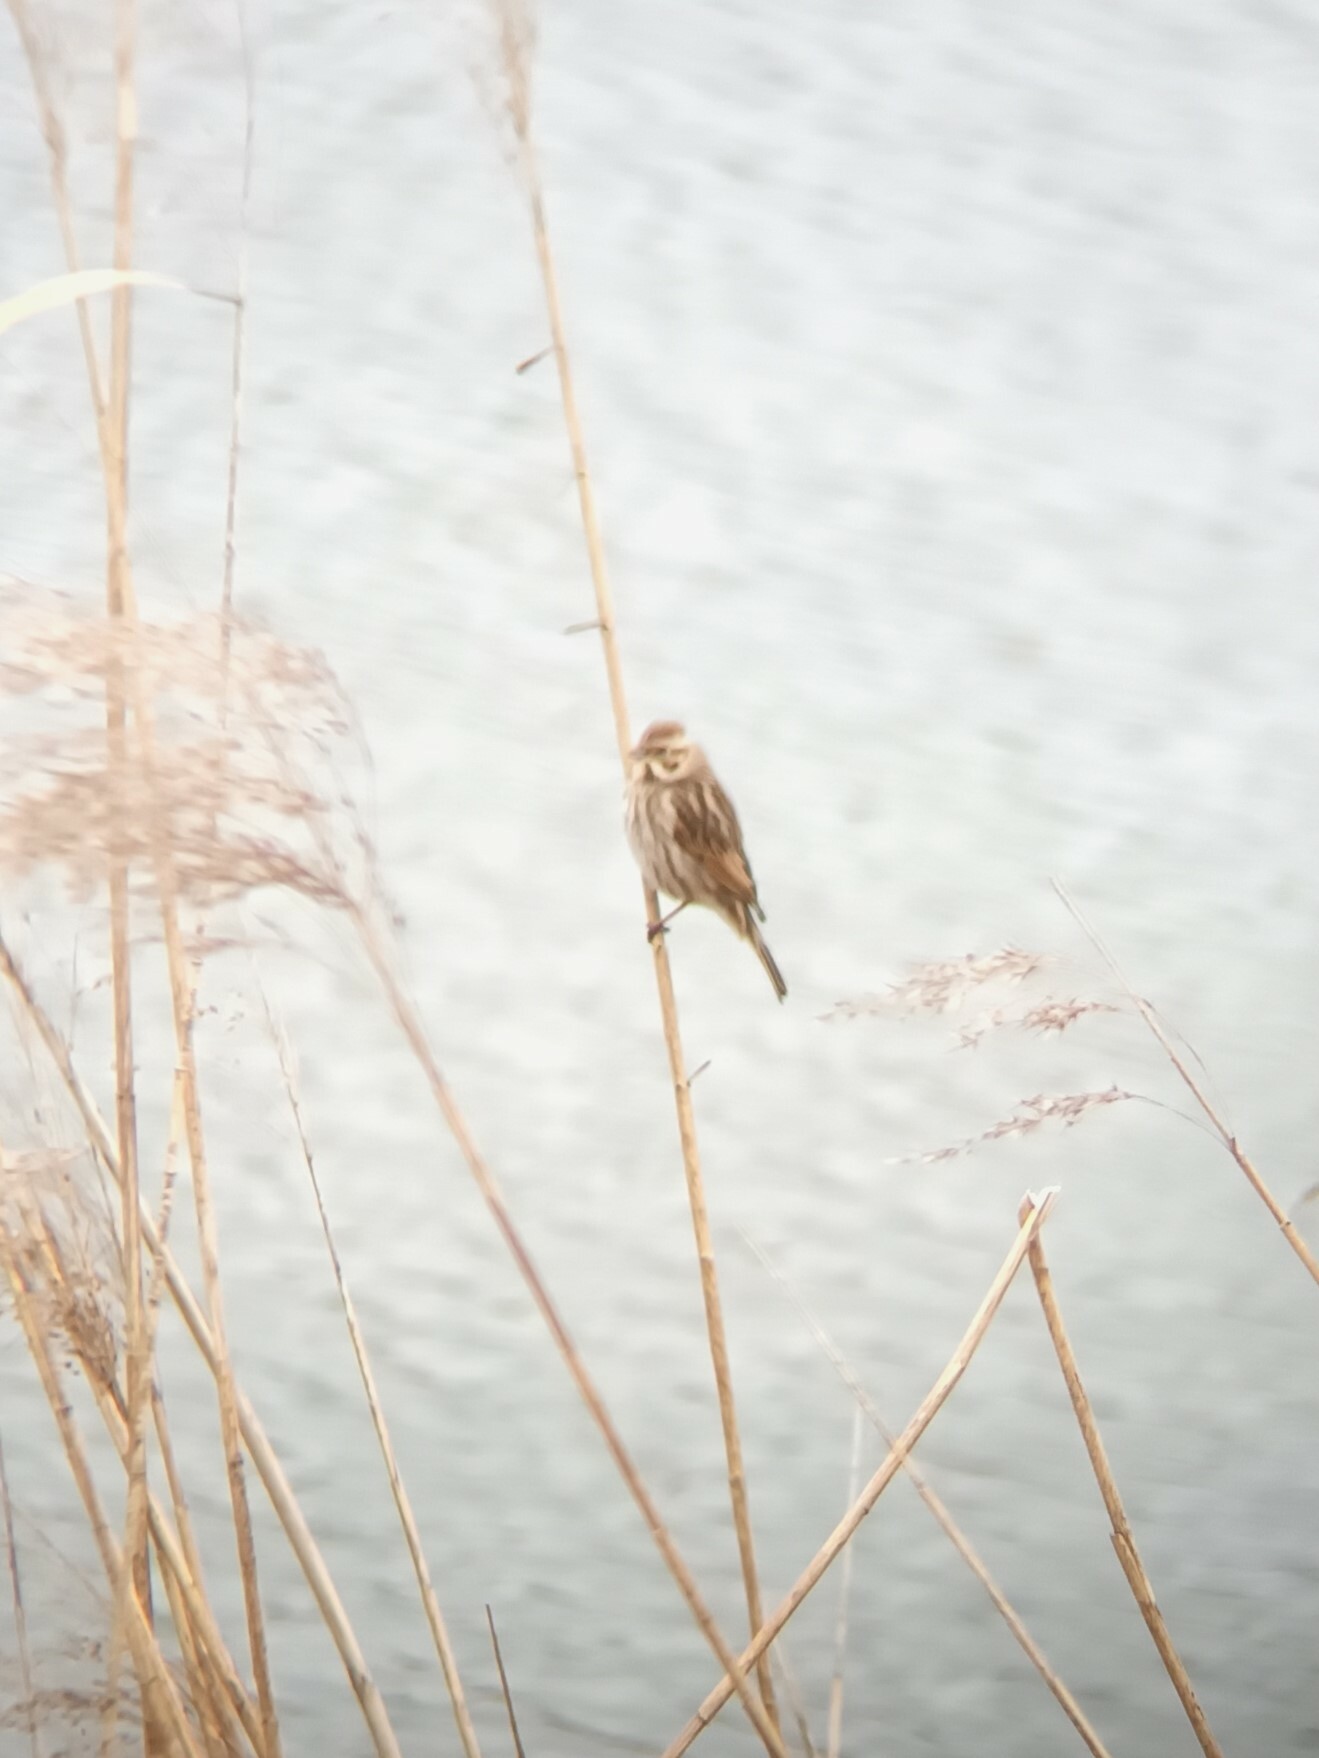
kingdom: Animalia
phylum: Chordata
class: Aves
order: Passeriformes
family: Emberizidae
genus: Emberiza
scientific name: Emberiza schoeniclus
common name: Reed bunting
